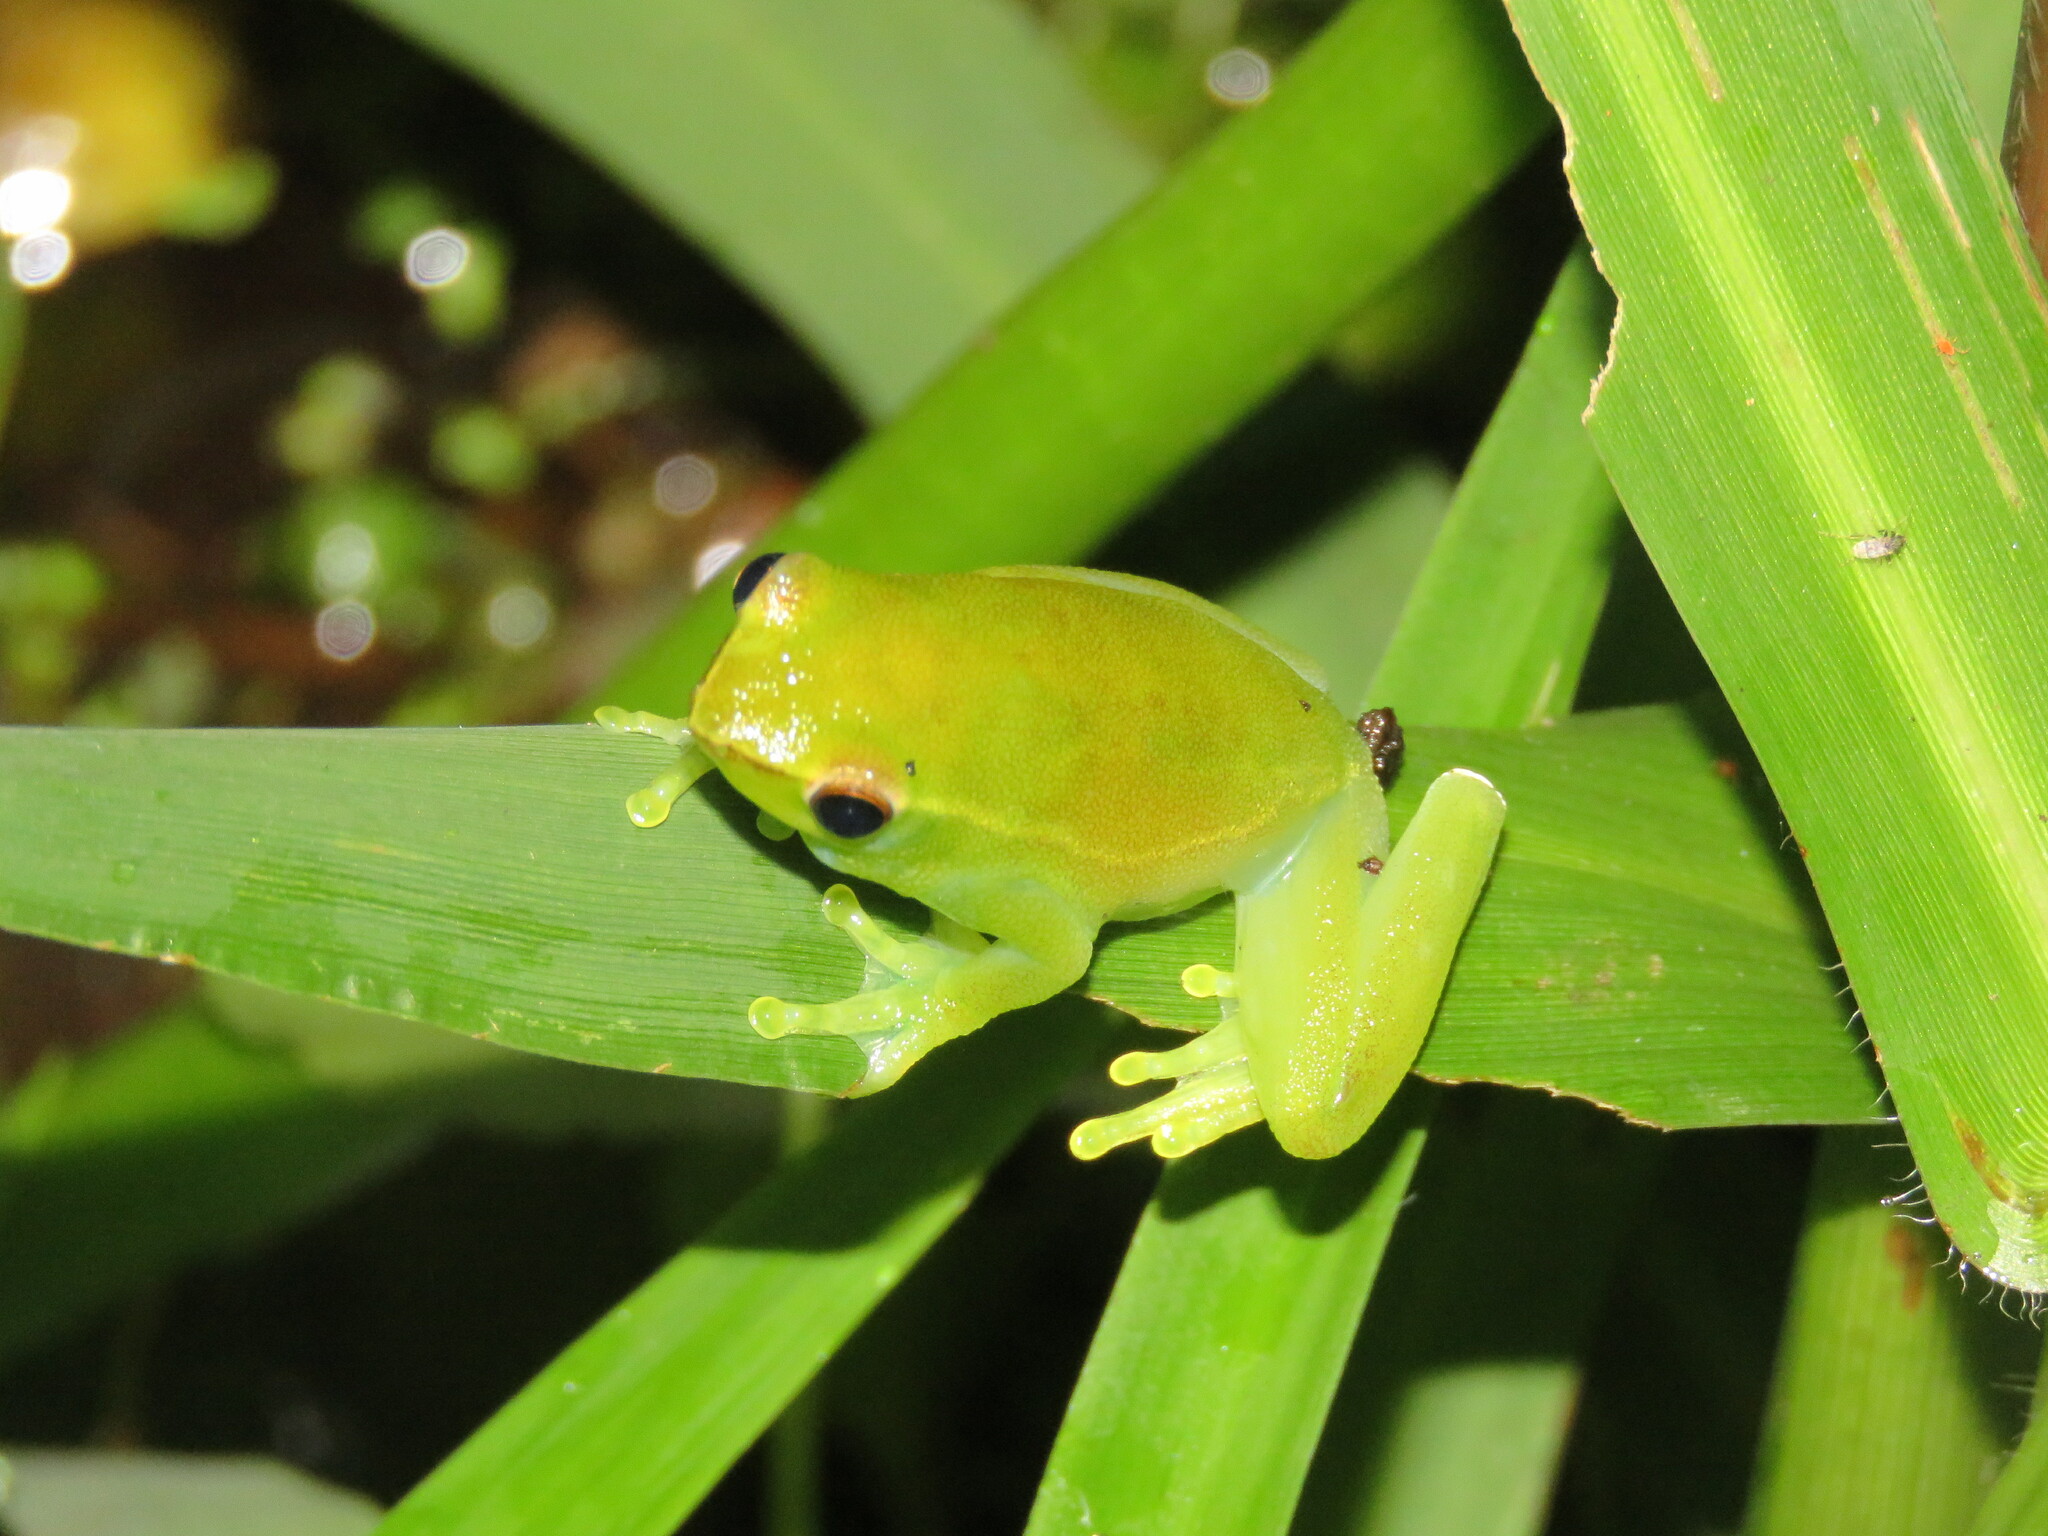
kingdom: Animalia
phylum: Chordata
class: Amphibia
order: Anura
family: Hylidae
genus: Sphaenorhynchus
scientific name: Sphaenorhynchus lacteus
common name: Orinoco lime treefrog
